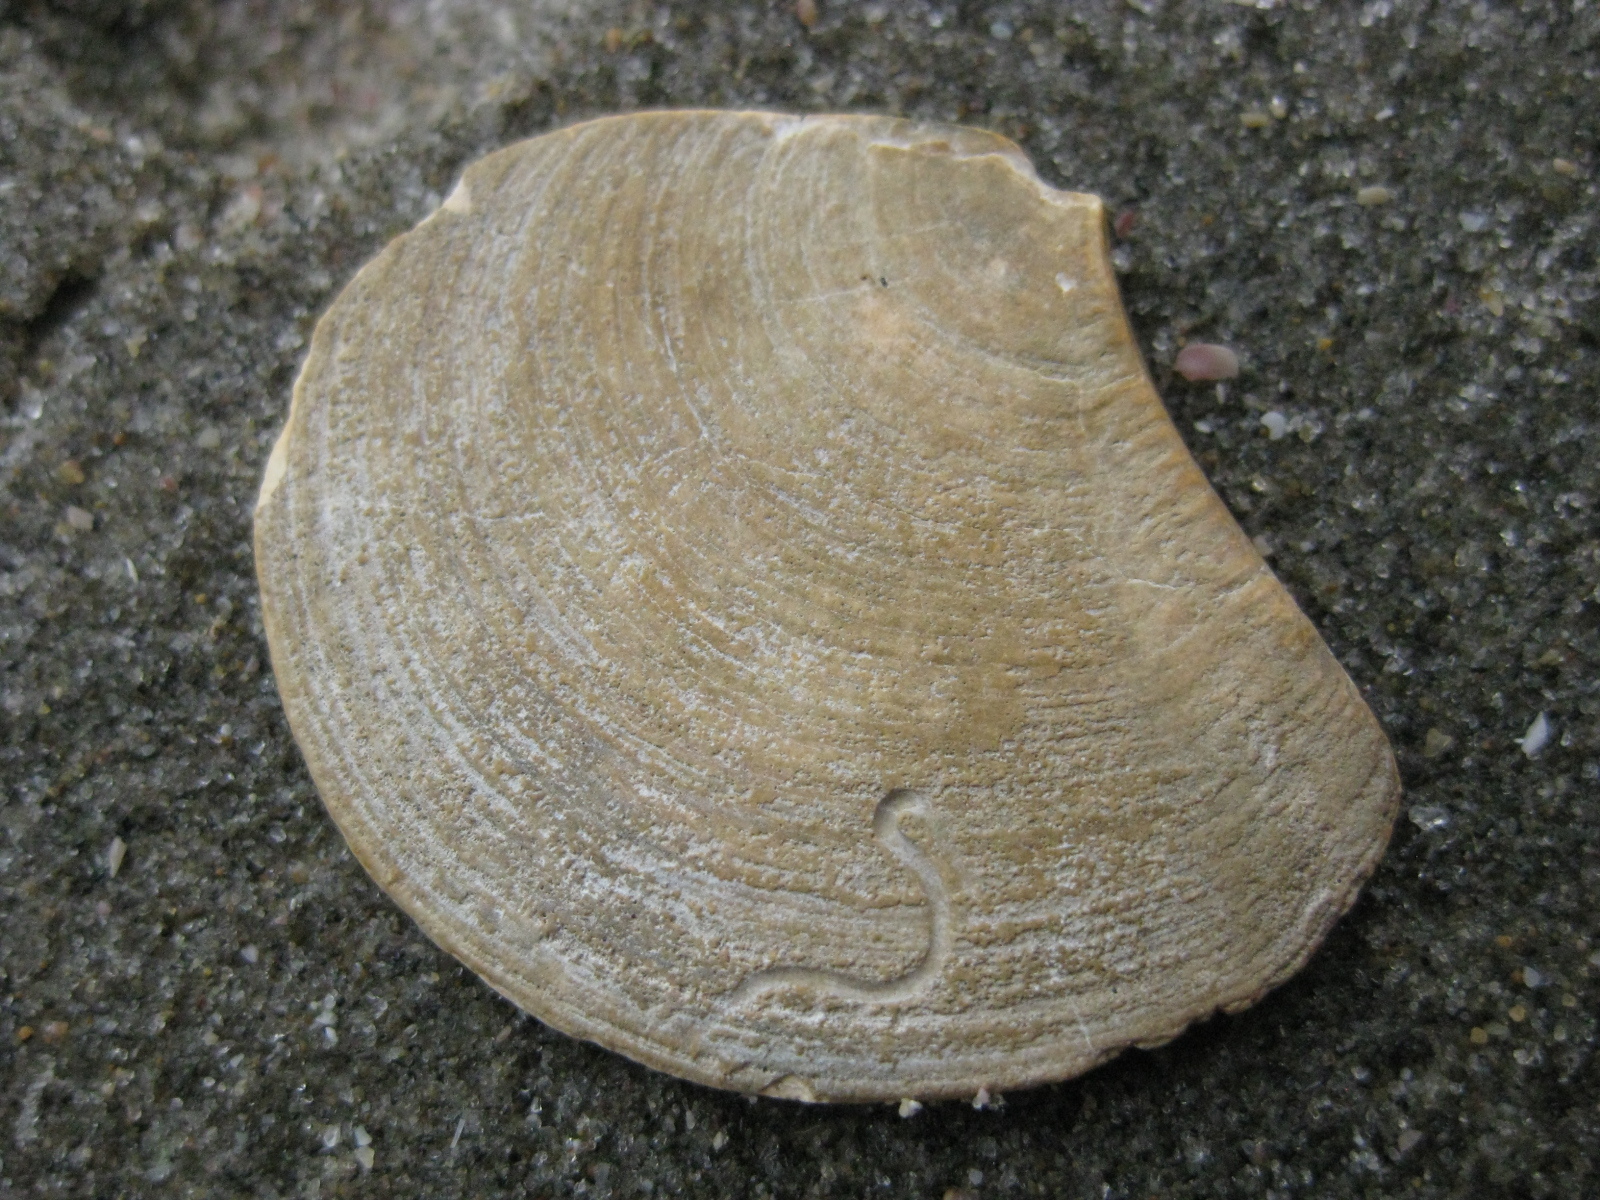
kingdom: Animalia
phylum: Mollusca
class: Bivalvia
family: Myochamidae
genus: Myadora
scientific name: Myadora striata
